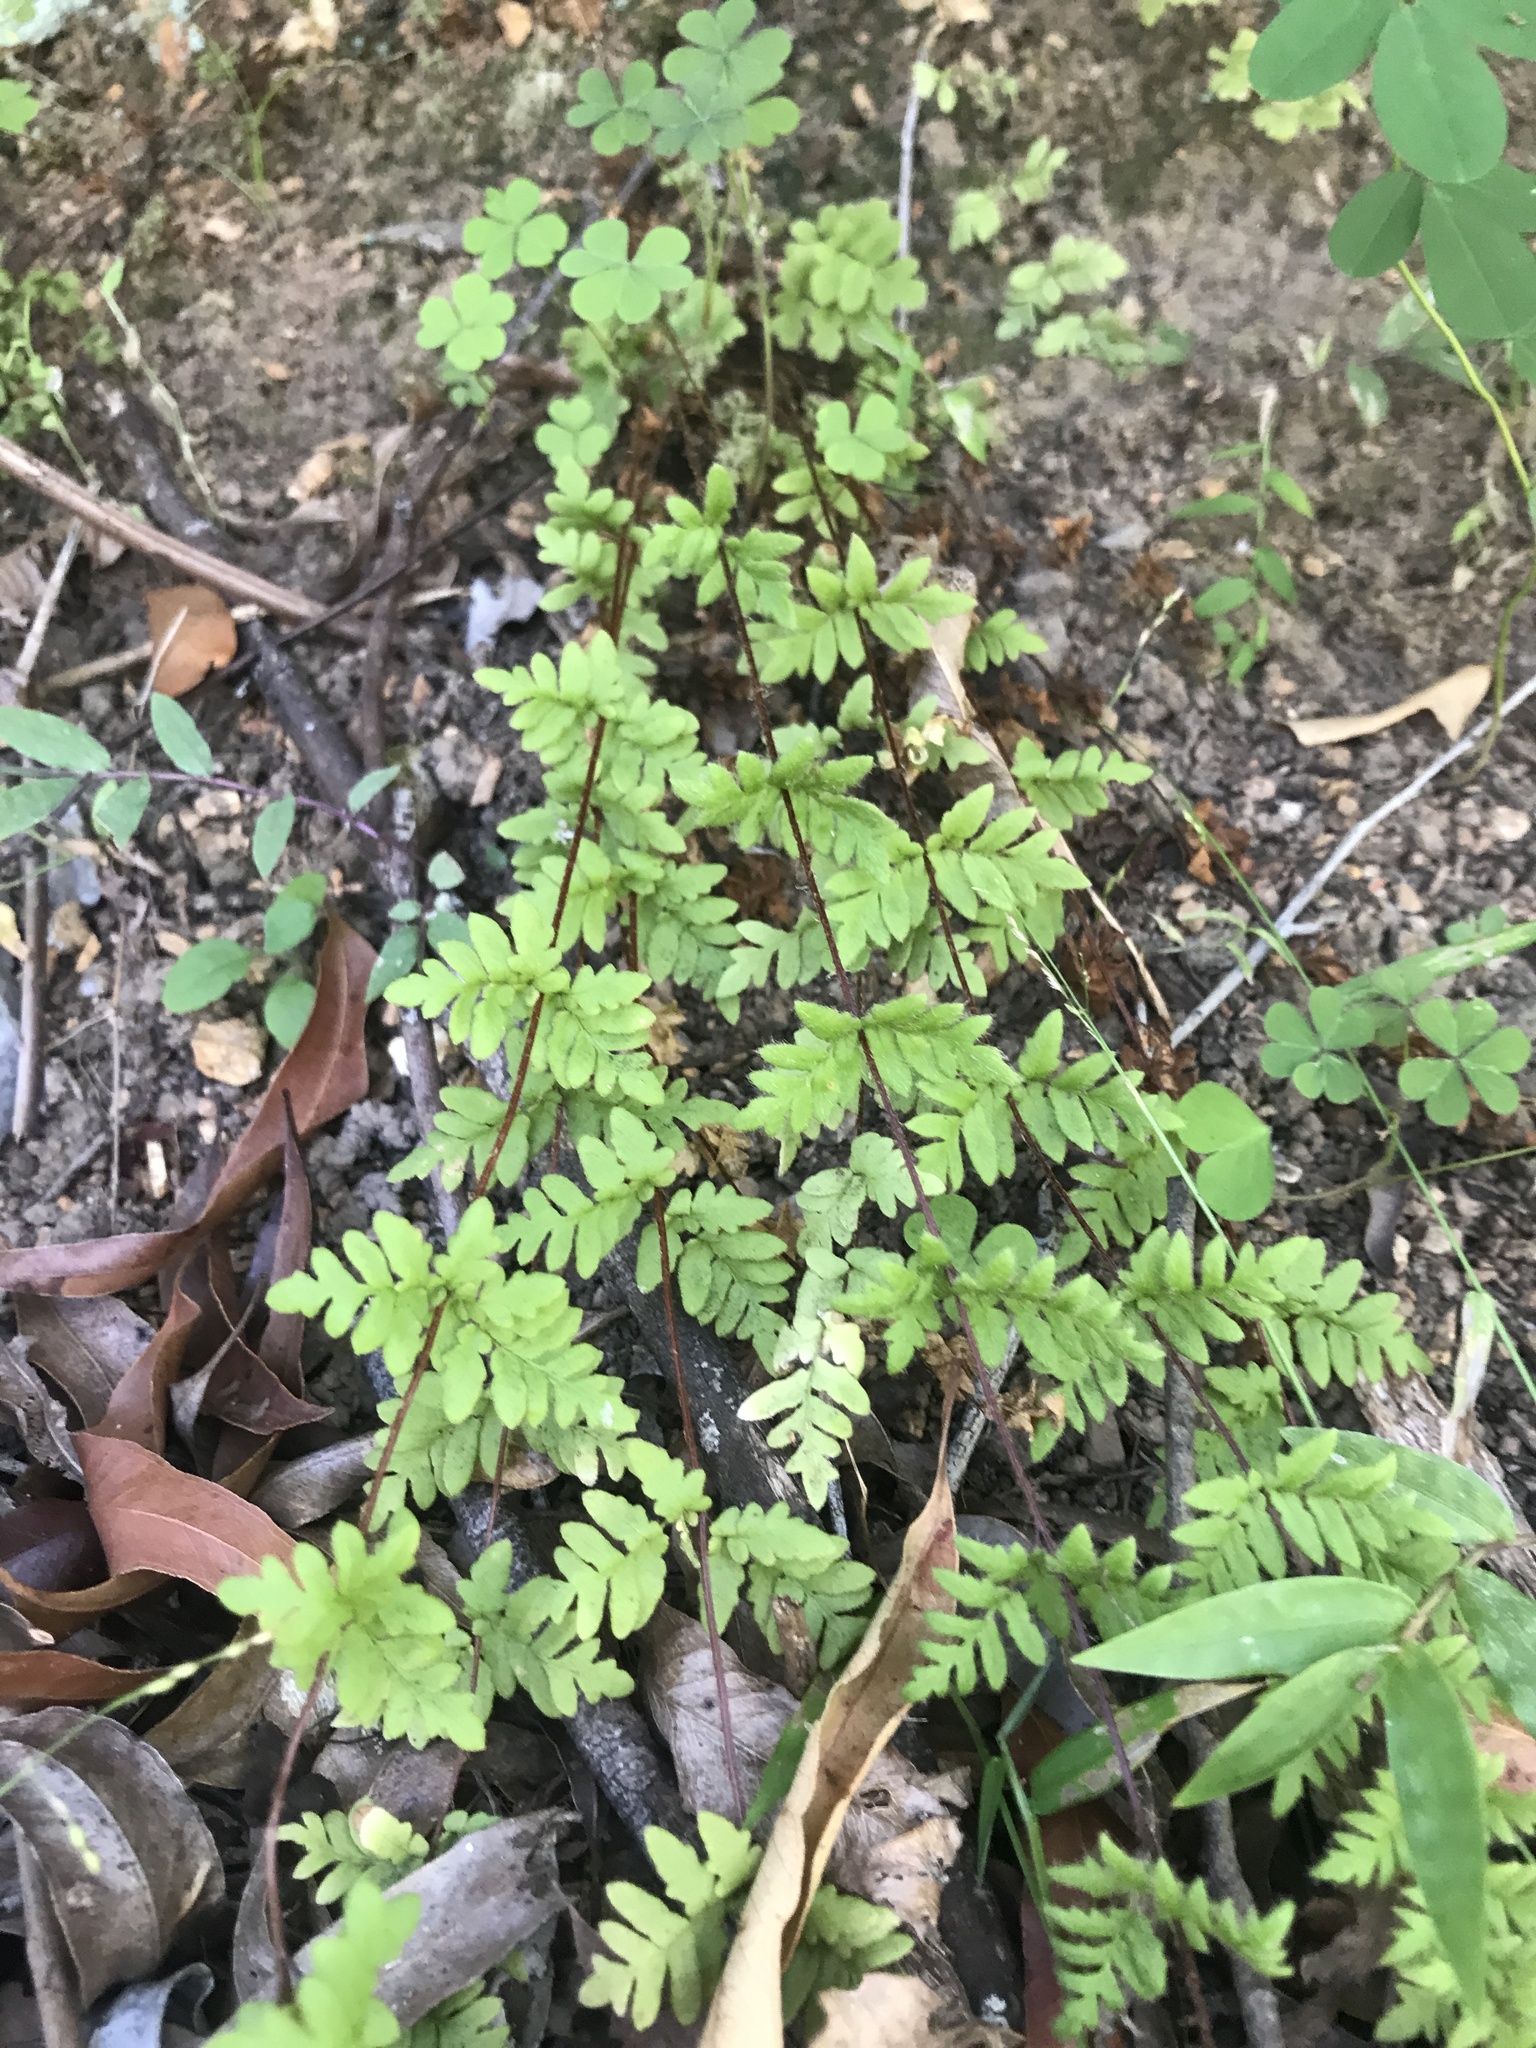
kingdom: Plantae
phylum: Tracheophyta
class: Polypodiopsida
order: Polypodiales
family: Pteridaceae
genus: Cheilanthes
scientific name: Cheilanthes distans
